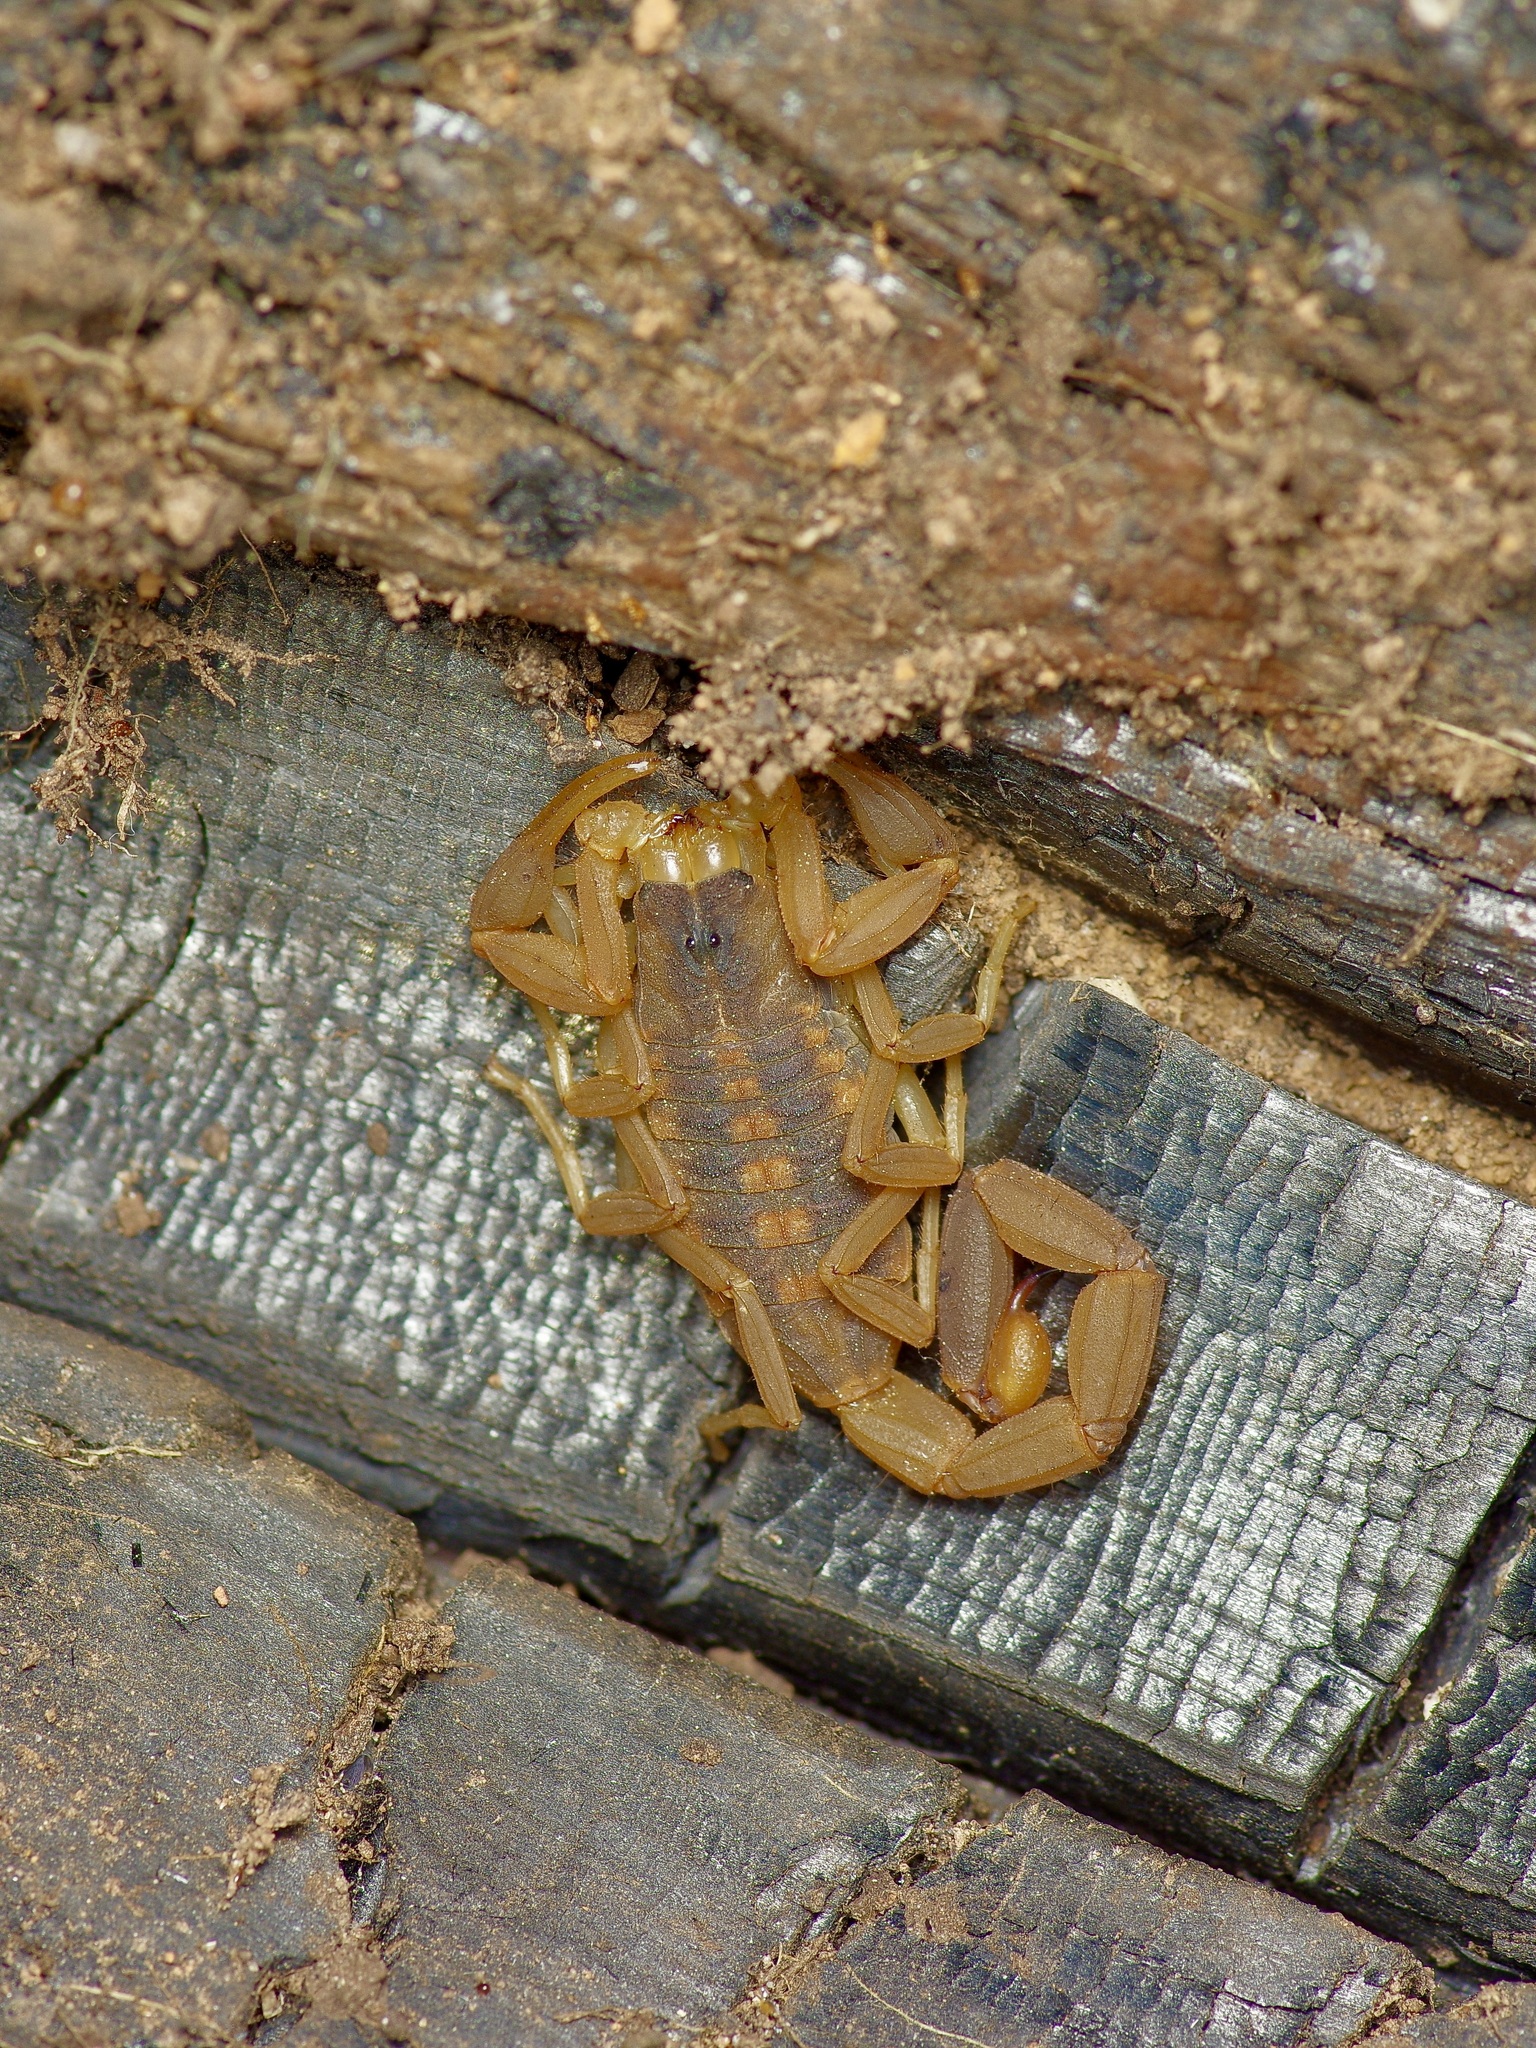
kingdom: Animalia
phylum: Arthropoda
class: Arachnida
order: Scorpiones
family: Buthidae
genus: Centruroides
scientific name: Centruroides vittatus
